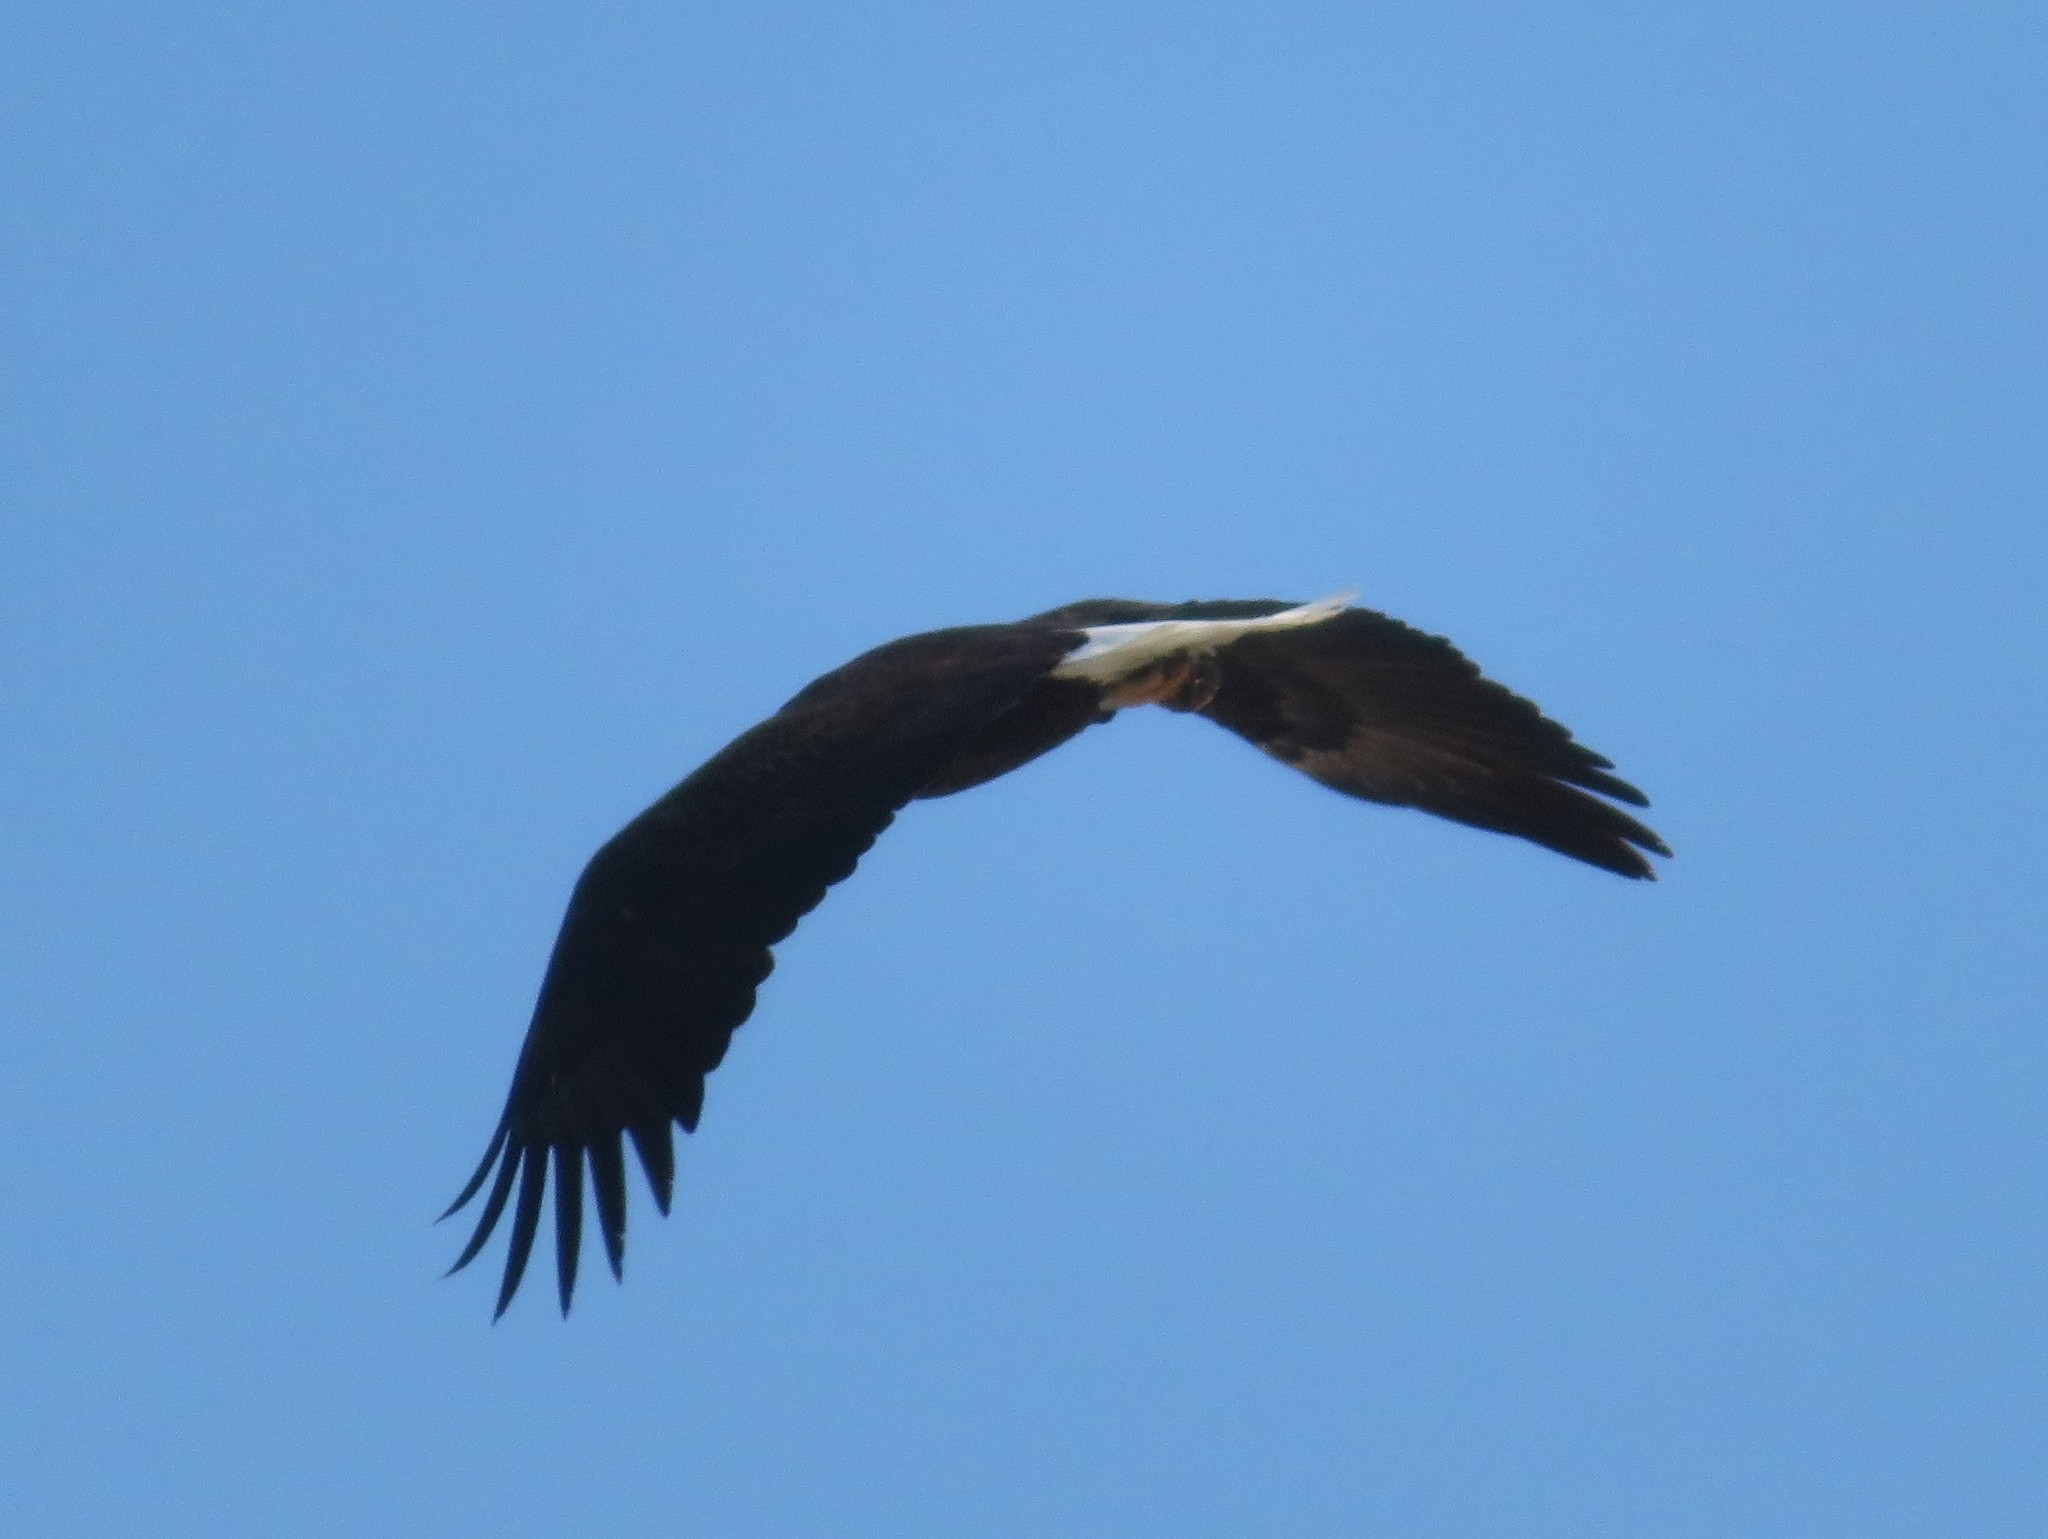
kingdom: Animalia
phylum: Chordata
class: Aves
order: Accipitriformes
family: Accipitridae
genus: Haliaeetus
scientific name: Haliaeetus leucocephalus
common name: Bald eagle
